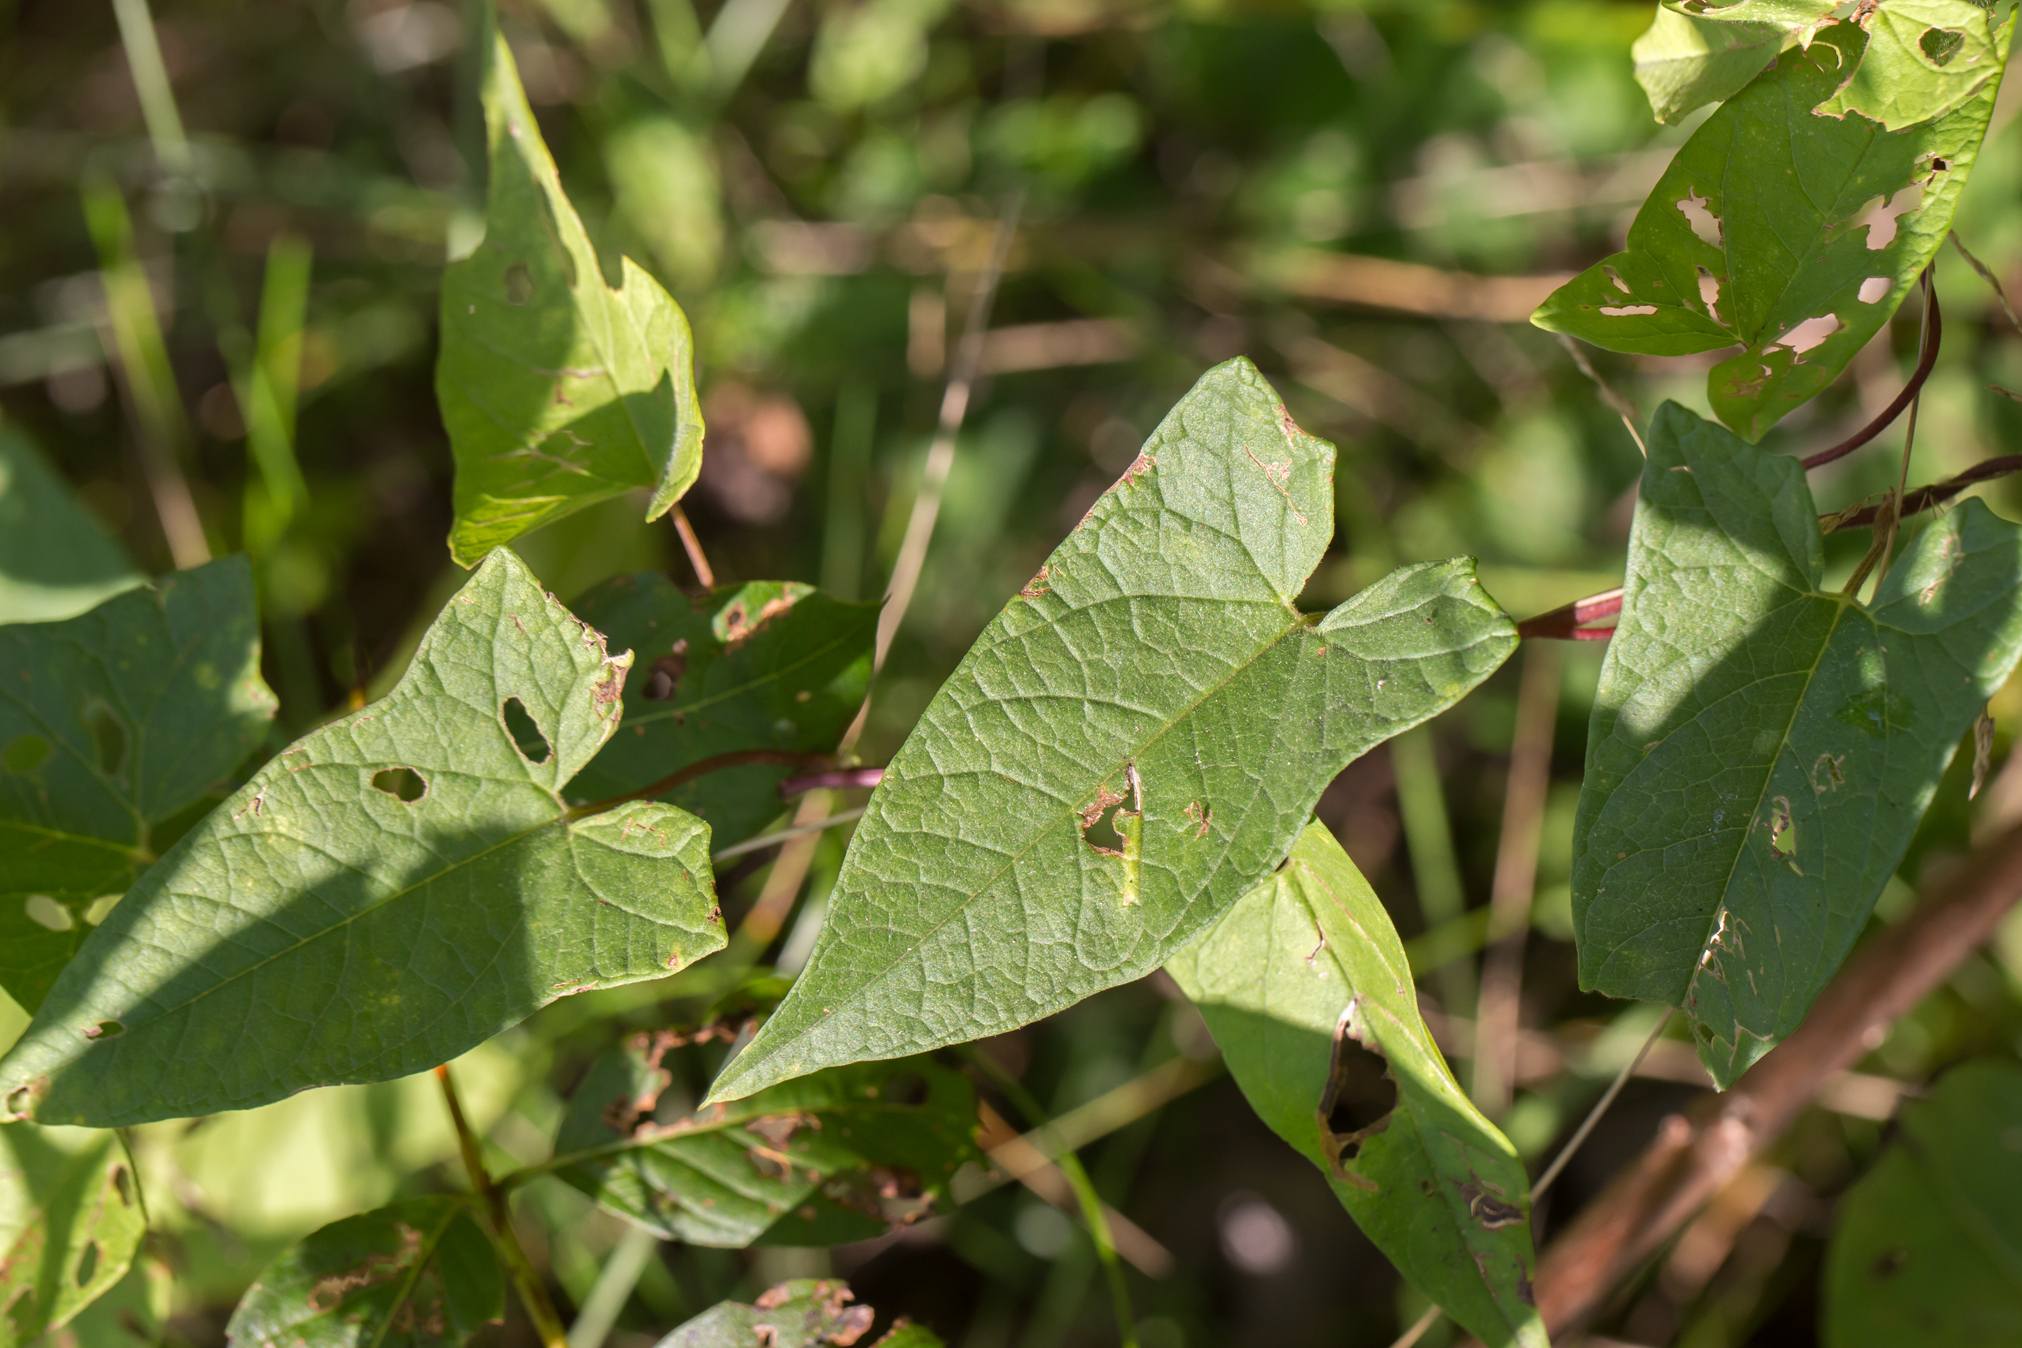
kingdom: Plantae
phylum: Tracheophyta
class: Magnoliopsida
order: Solanales
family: Convolvulaceae
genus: Calystegia
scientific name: Calystegia sepium
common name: Hedge bindweed
